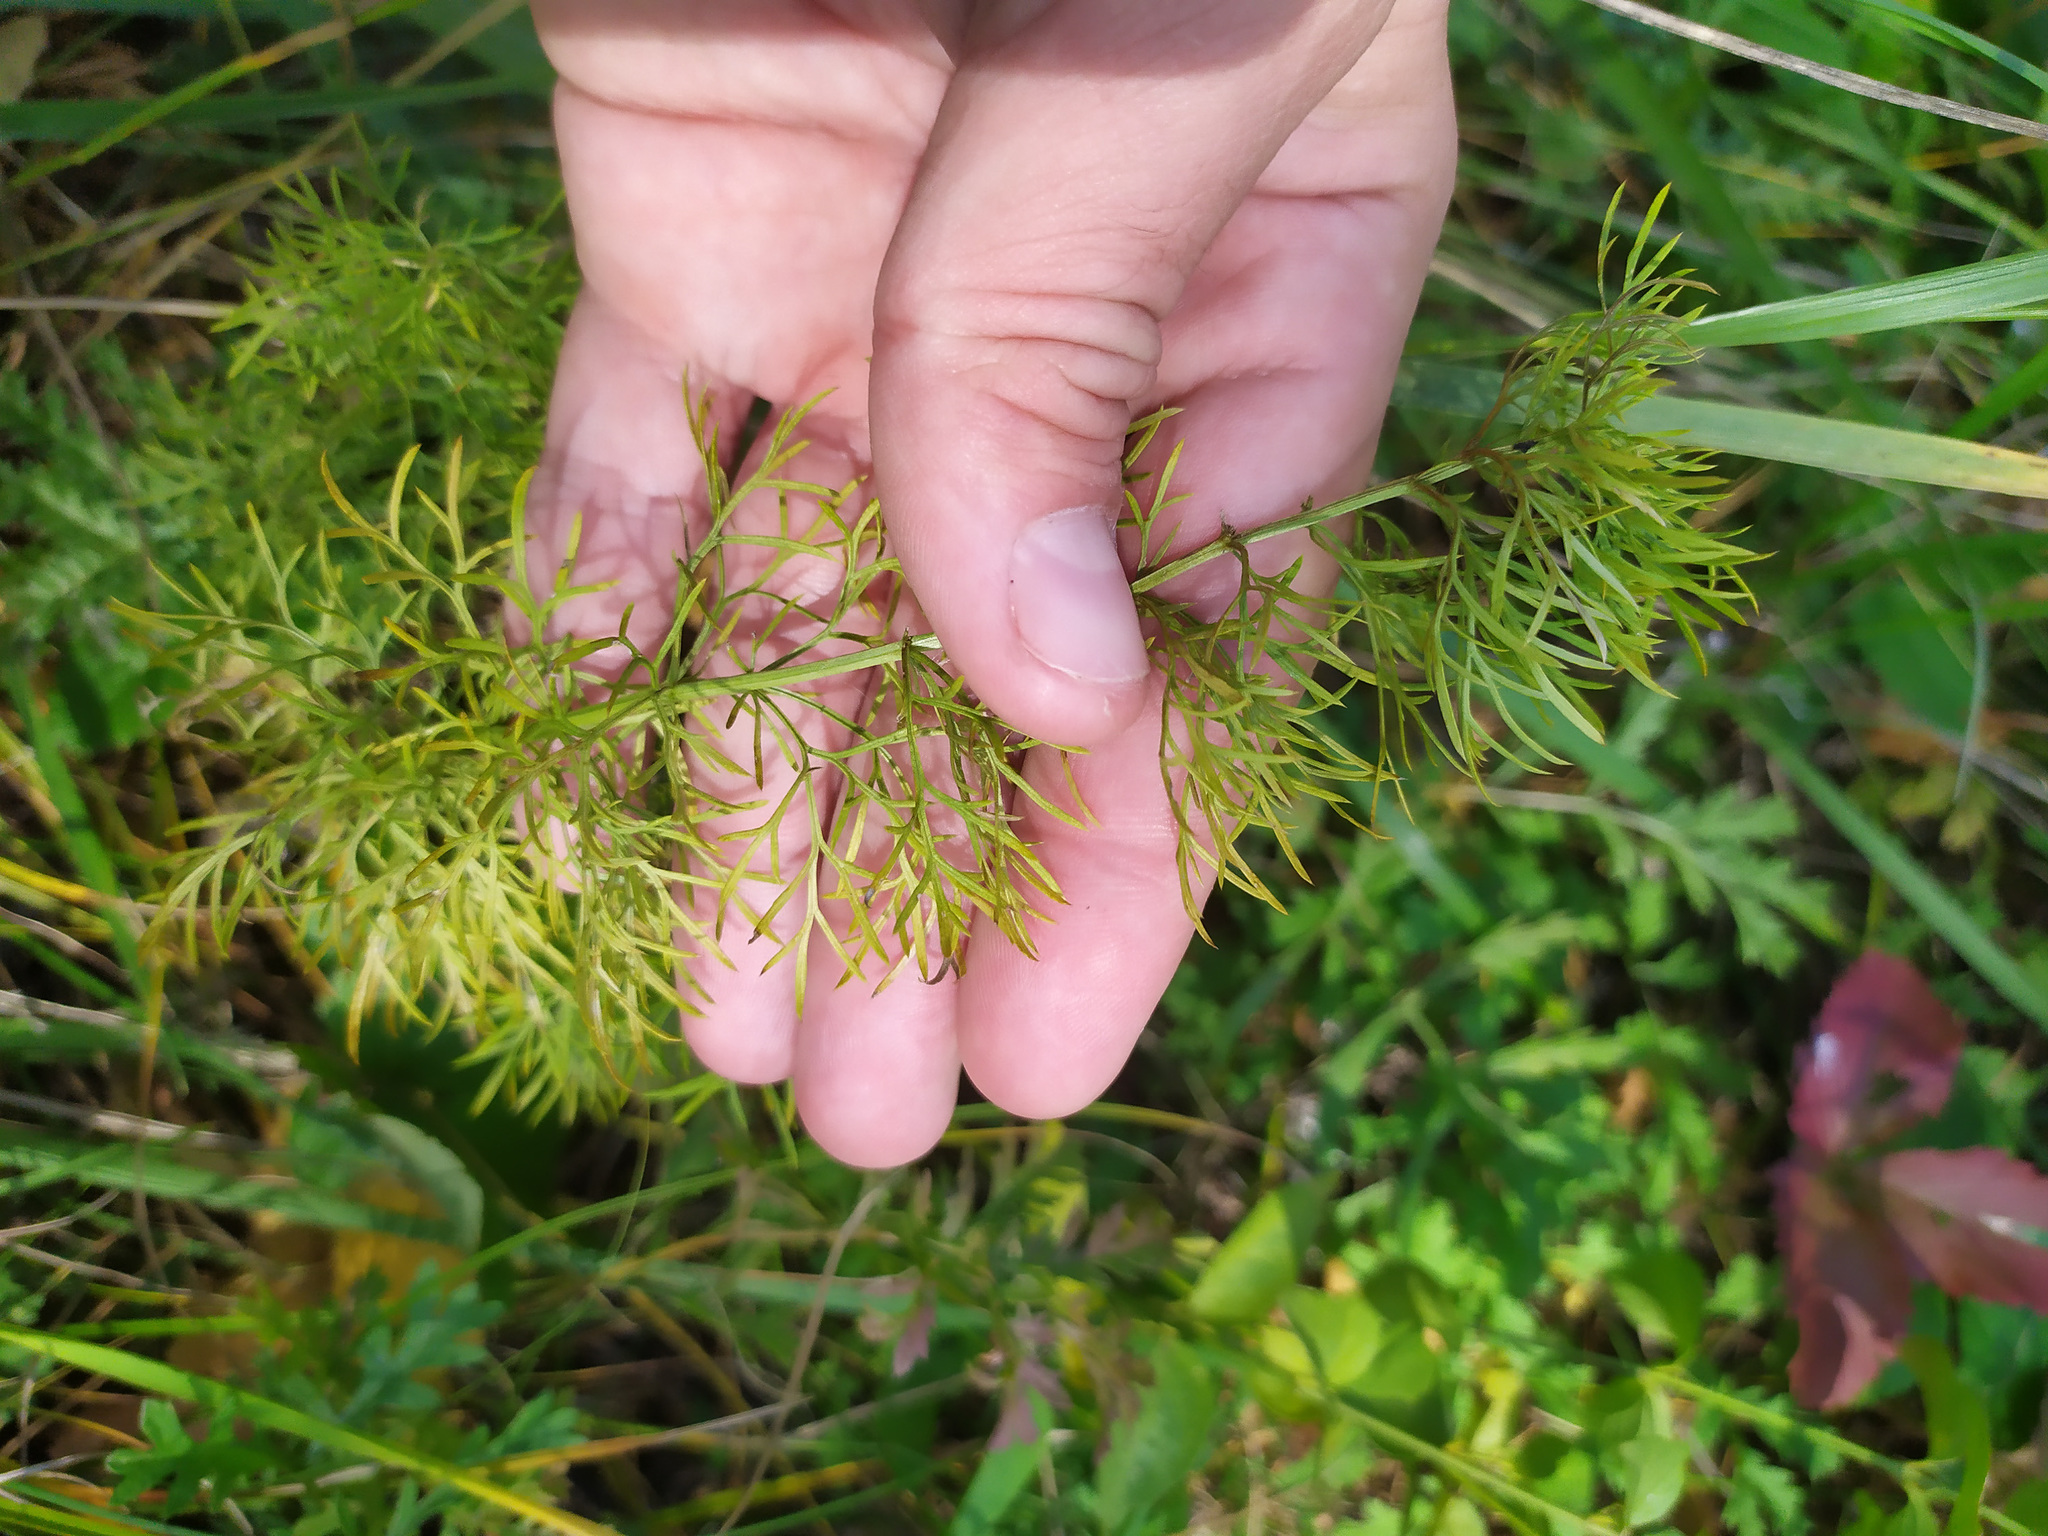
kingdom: Plantae
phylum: Tracheophyta
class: Magnoliopsida
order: Ranunculales
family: Ranunculaceae
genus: Adonis
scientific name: Adonis vernalis
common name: Yellow pheasants-eye
